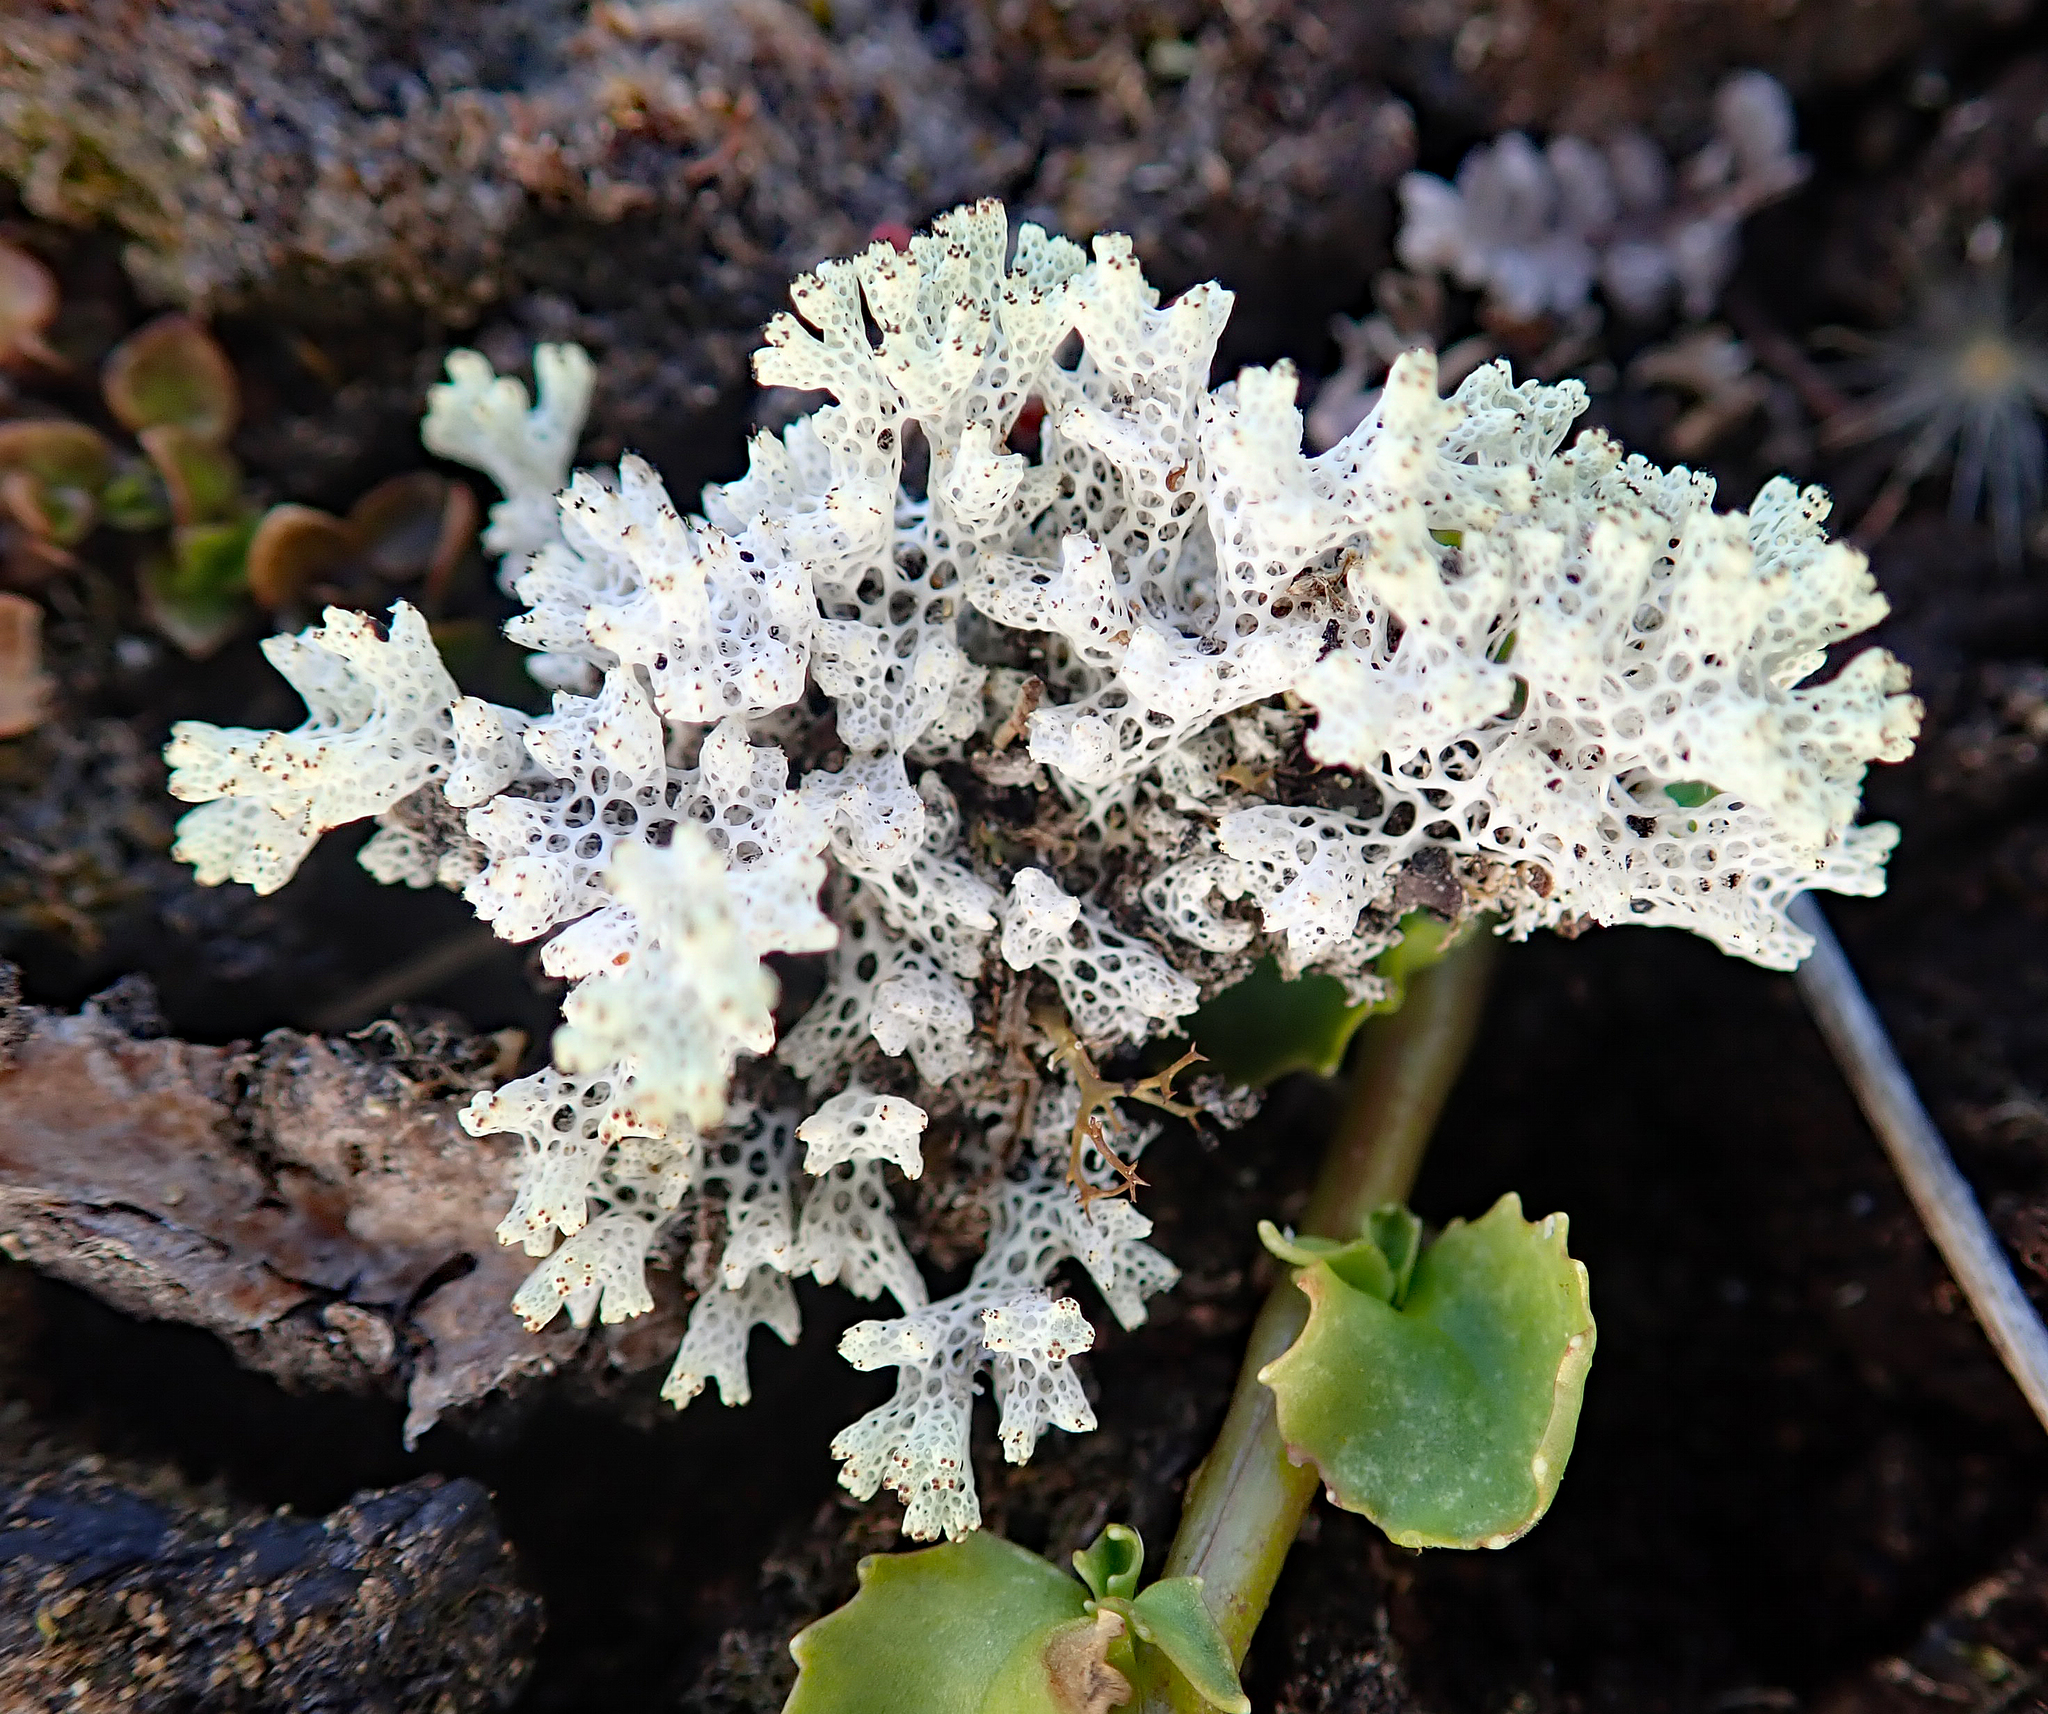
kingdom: Fungi
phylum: Ascomycota
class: Lecanoromycetes
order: Lecanorales
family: Cladoniaceae
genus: Pulchrocladia
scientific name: Pulchrocladia retipora
